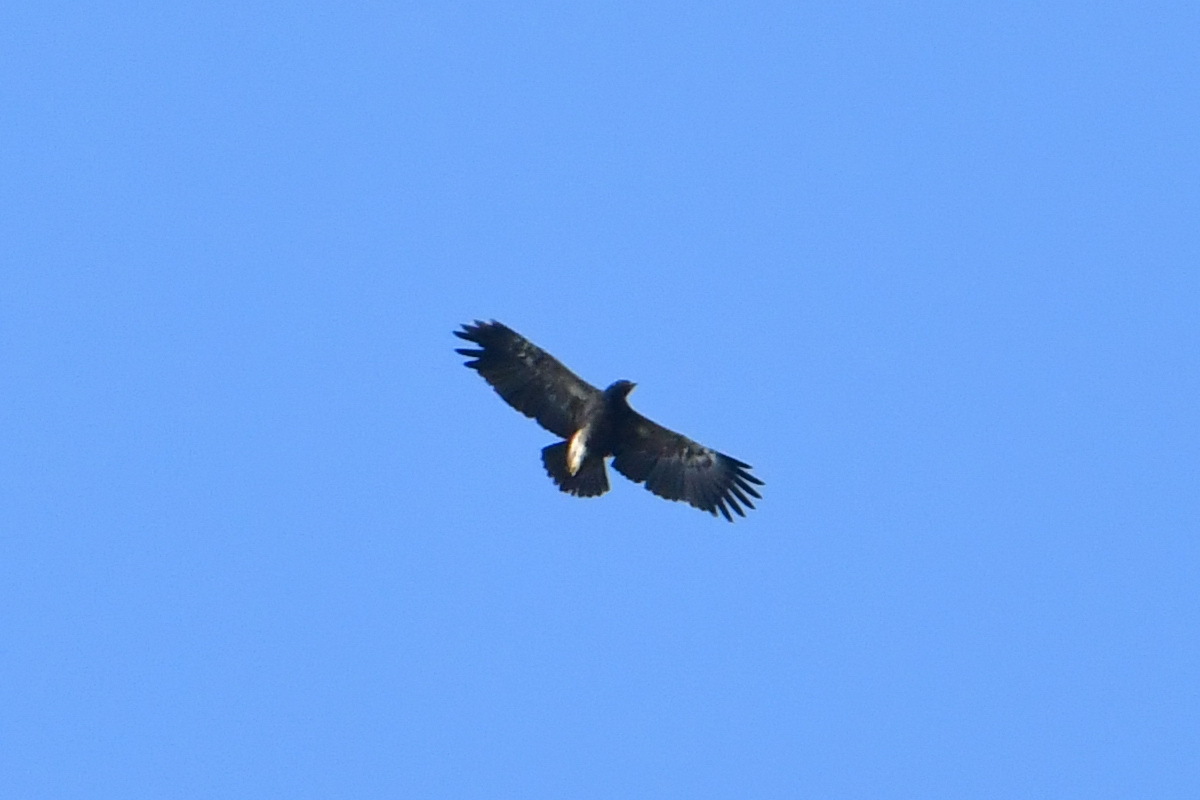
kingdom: Animalia
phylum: Chordata
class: Aves
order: Accipitriformes
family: Accipitridae
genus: Aquila
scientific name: Aquila pomarina
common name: Lesser spotted eagle
